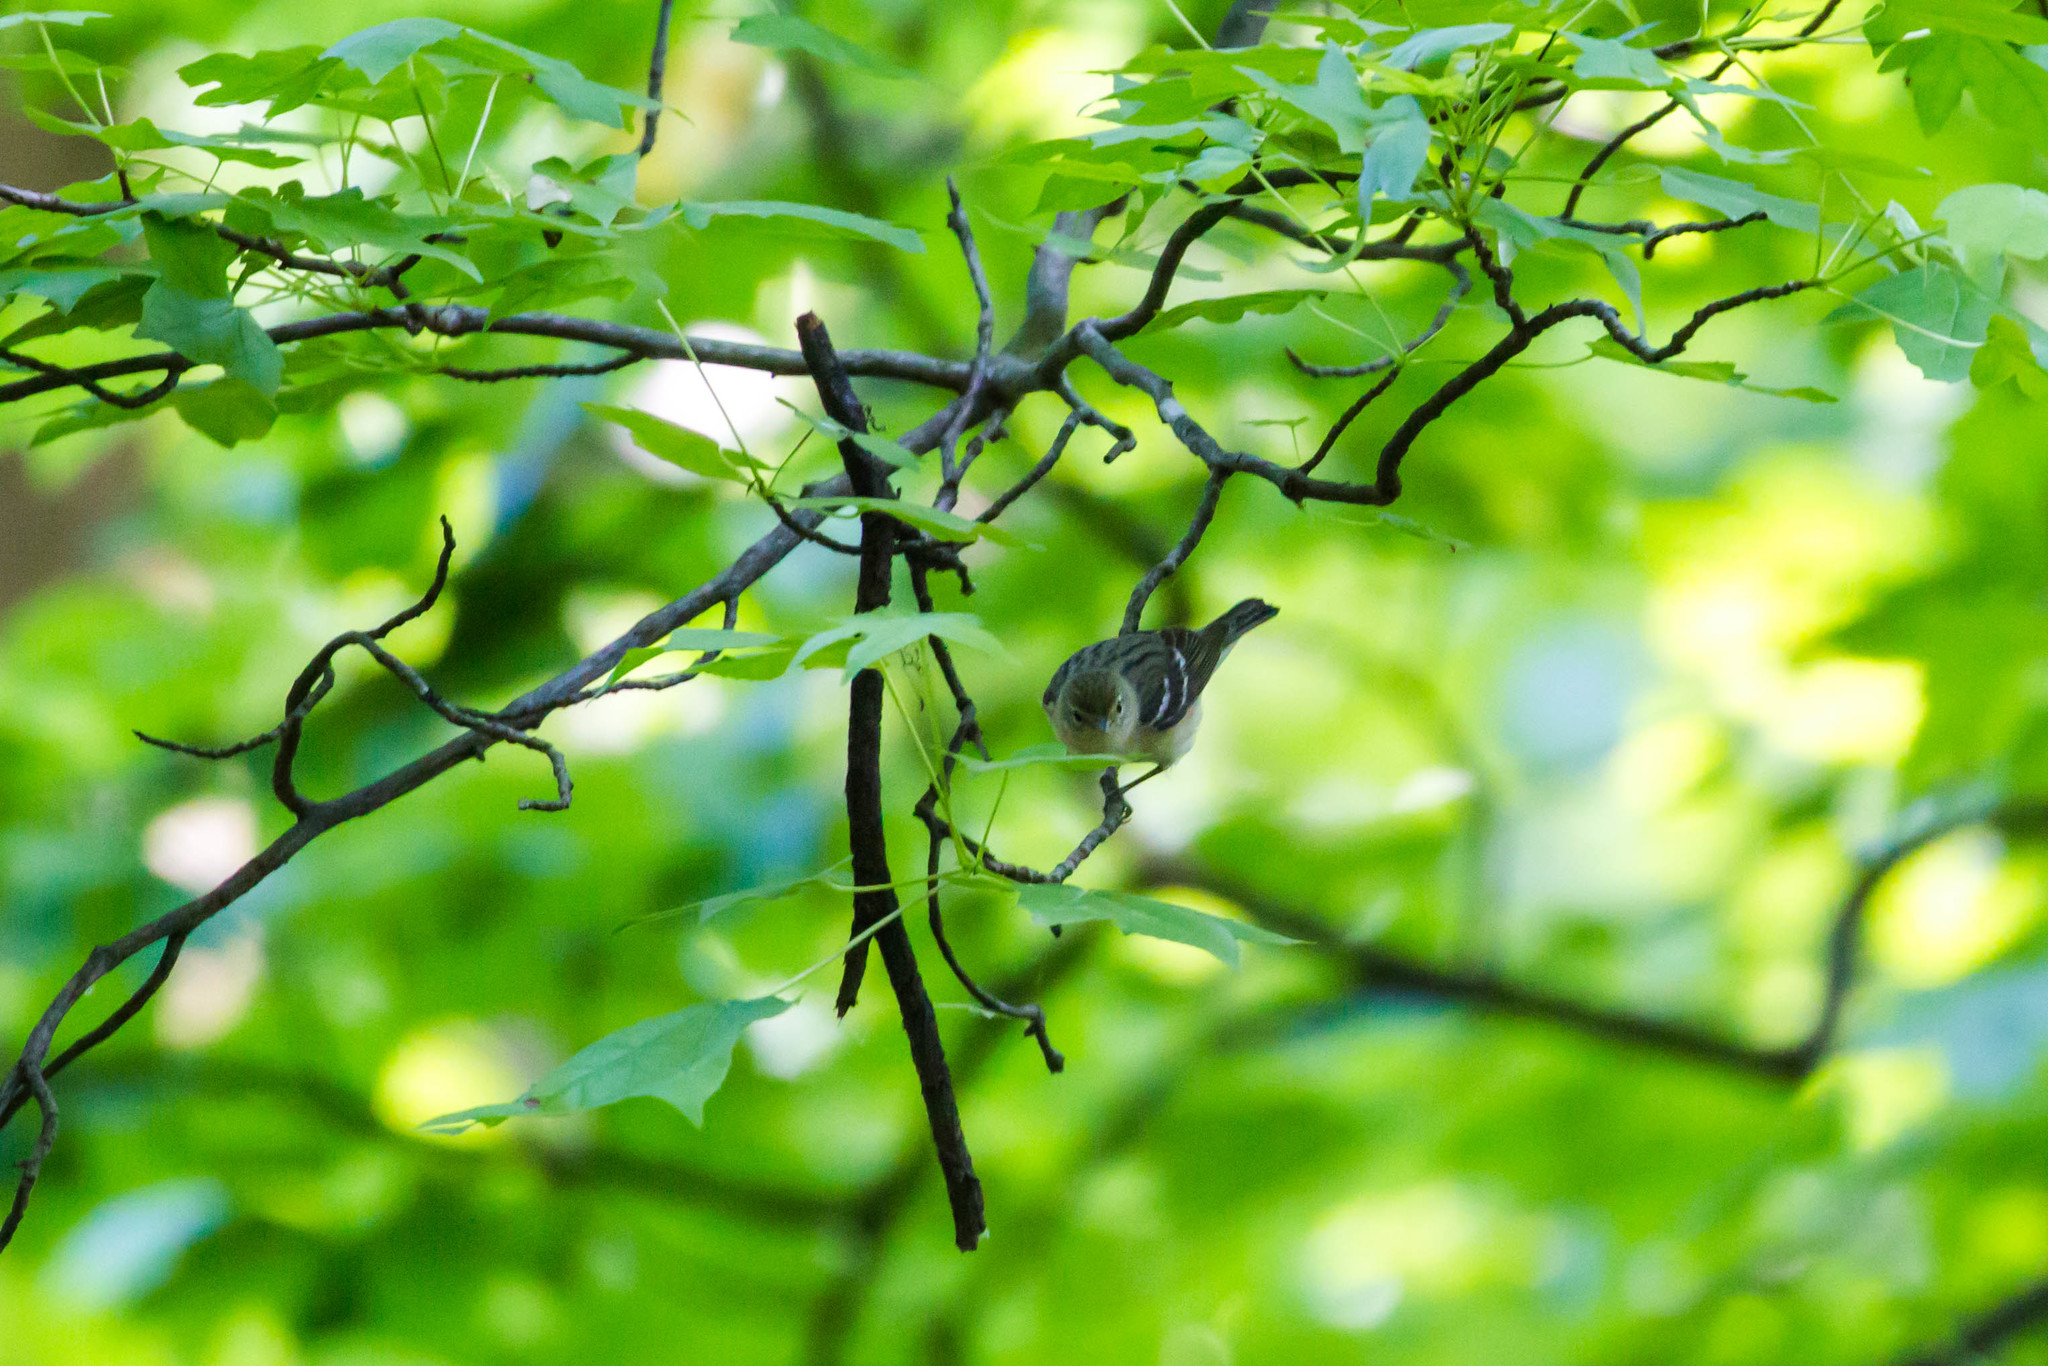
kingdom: Animalia
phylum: Chordata
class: Aves
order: Passeriformes
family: Parulidae
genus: Setophaga
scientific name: Setophaga castanea
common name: Bay-breasted warbler
